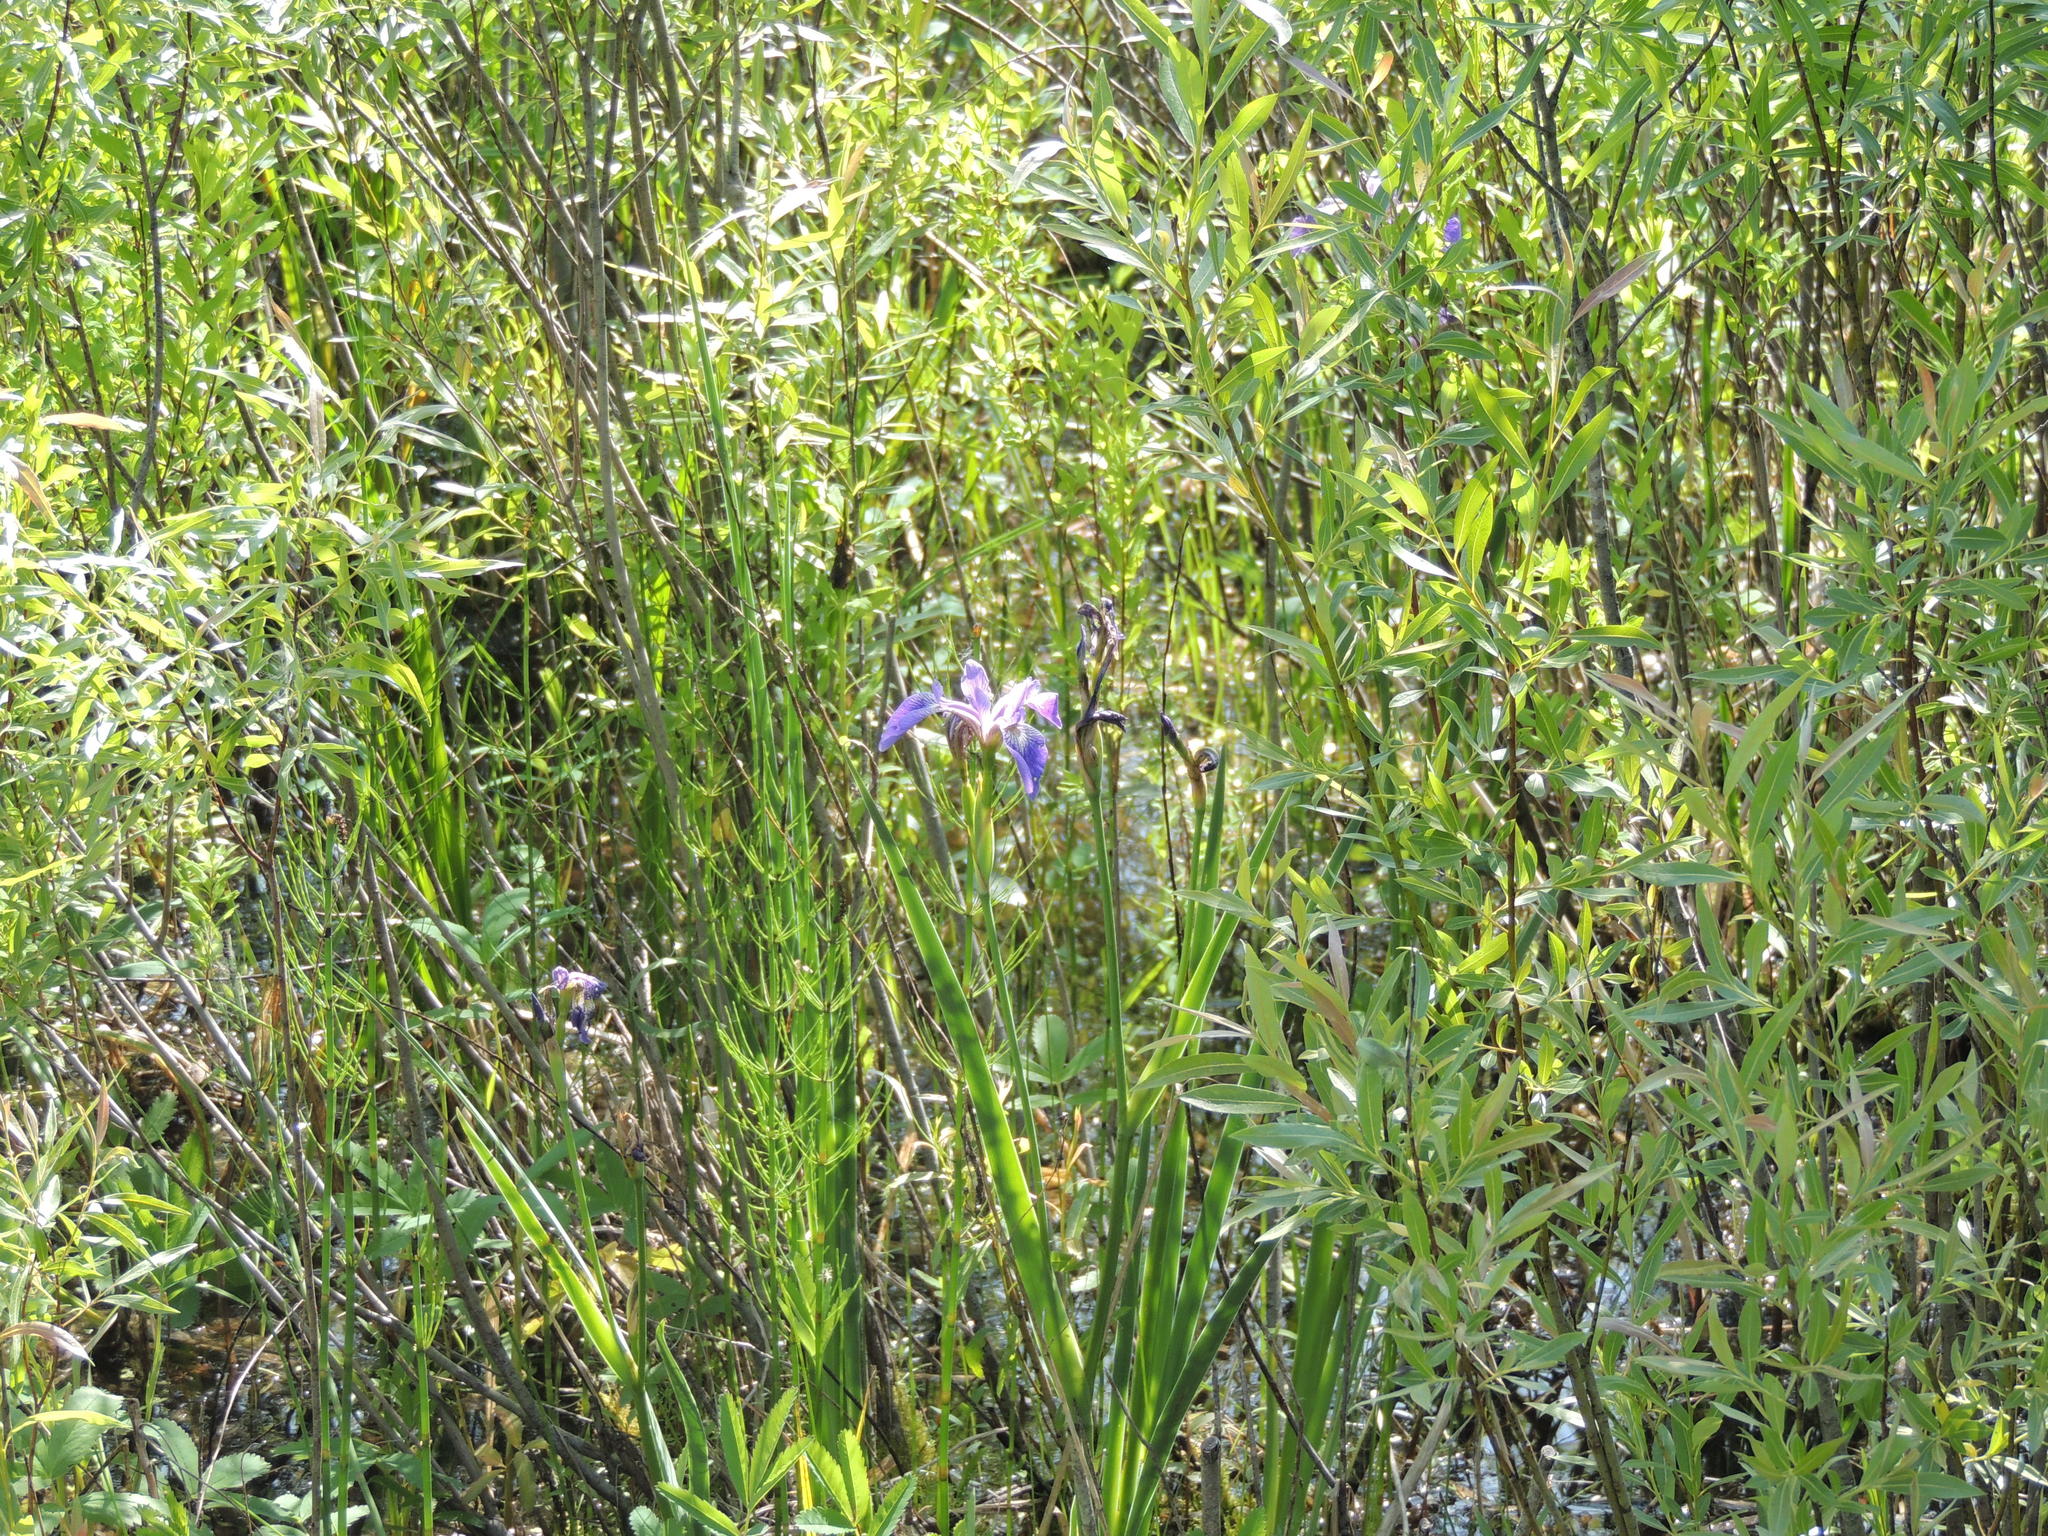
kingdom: Plantae
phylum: Tracheophyta
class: Liliopsida
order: Asparagales
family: Iridaceae
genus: Iris
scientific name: Iris versicolor
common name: Purple iris
